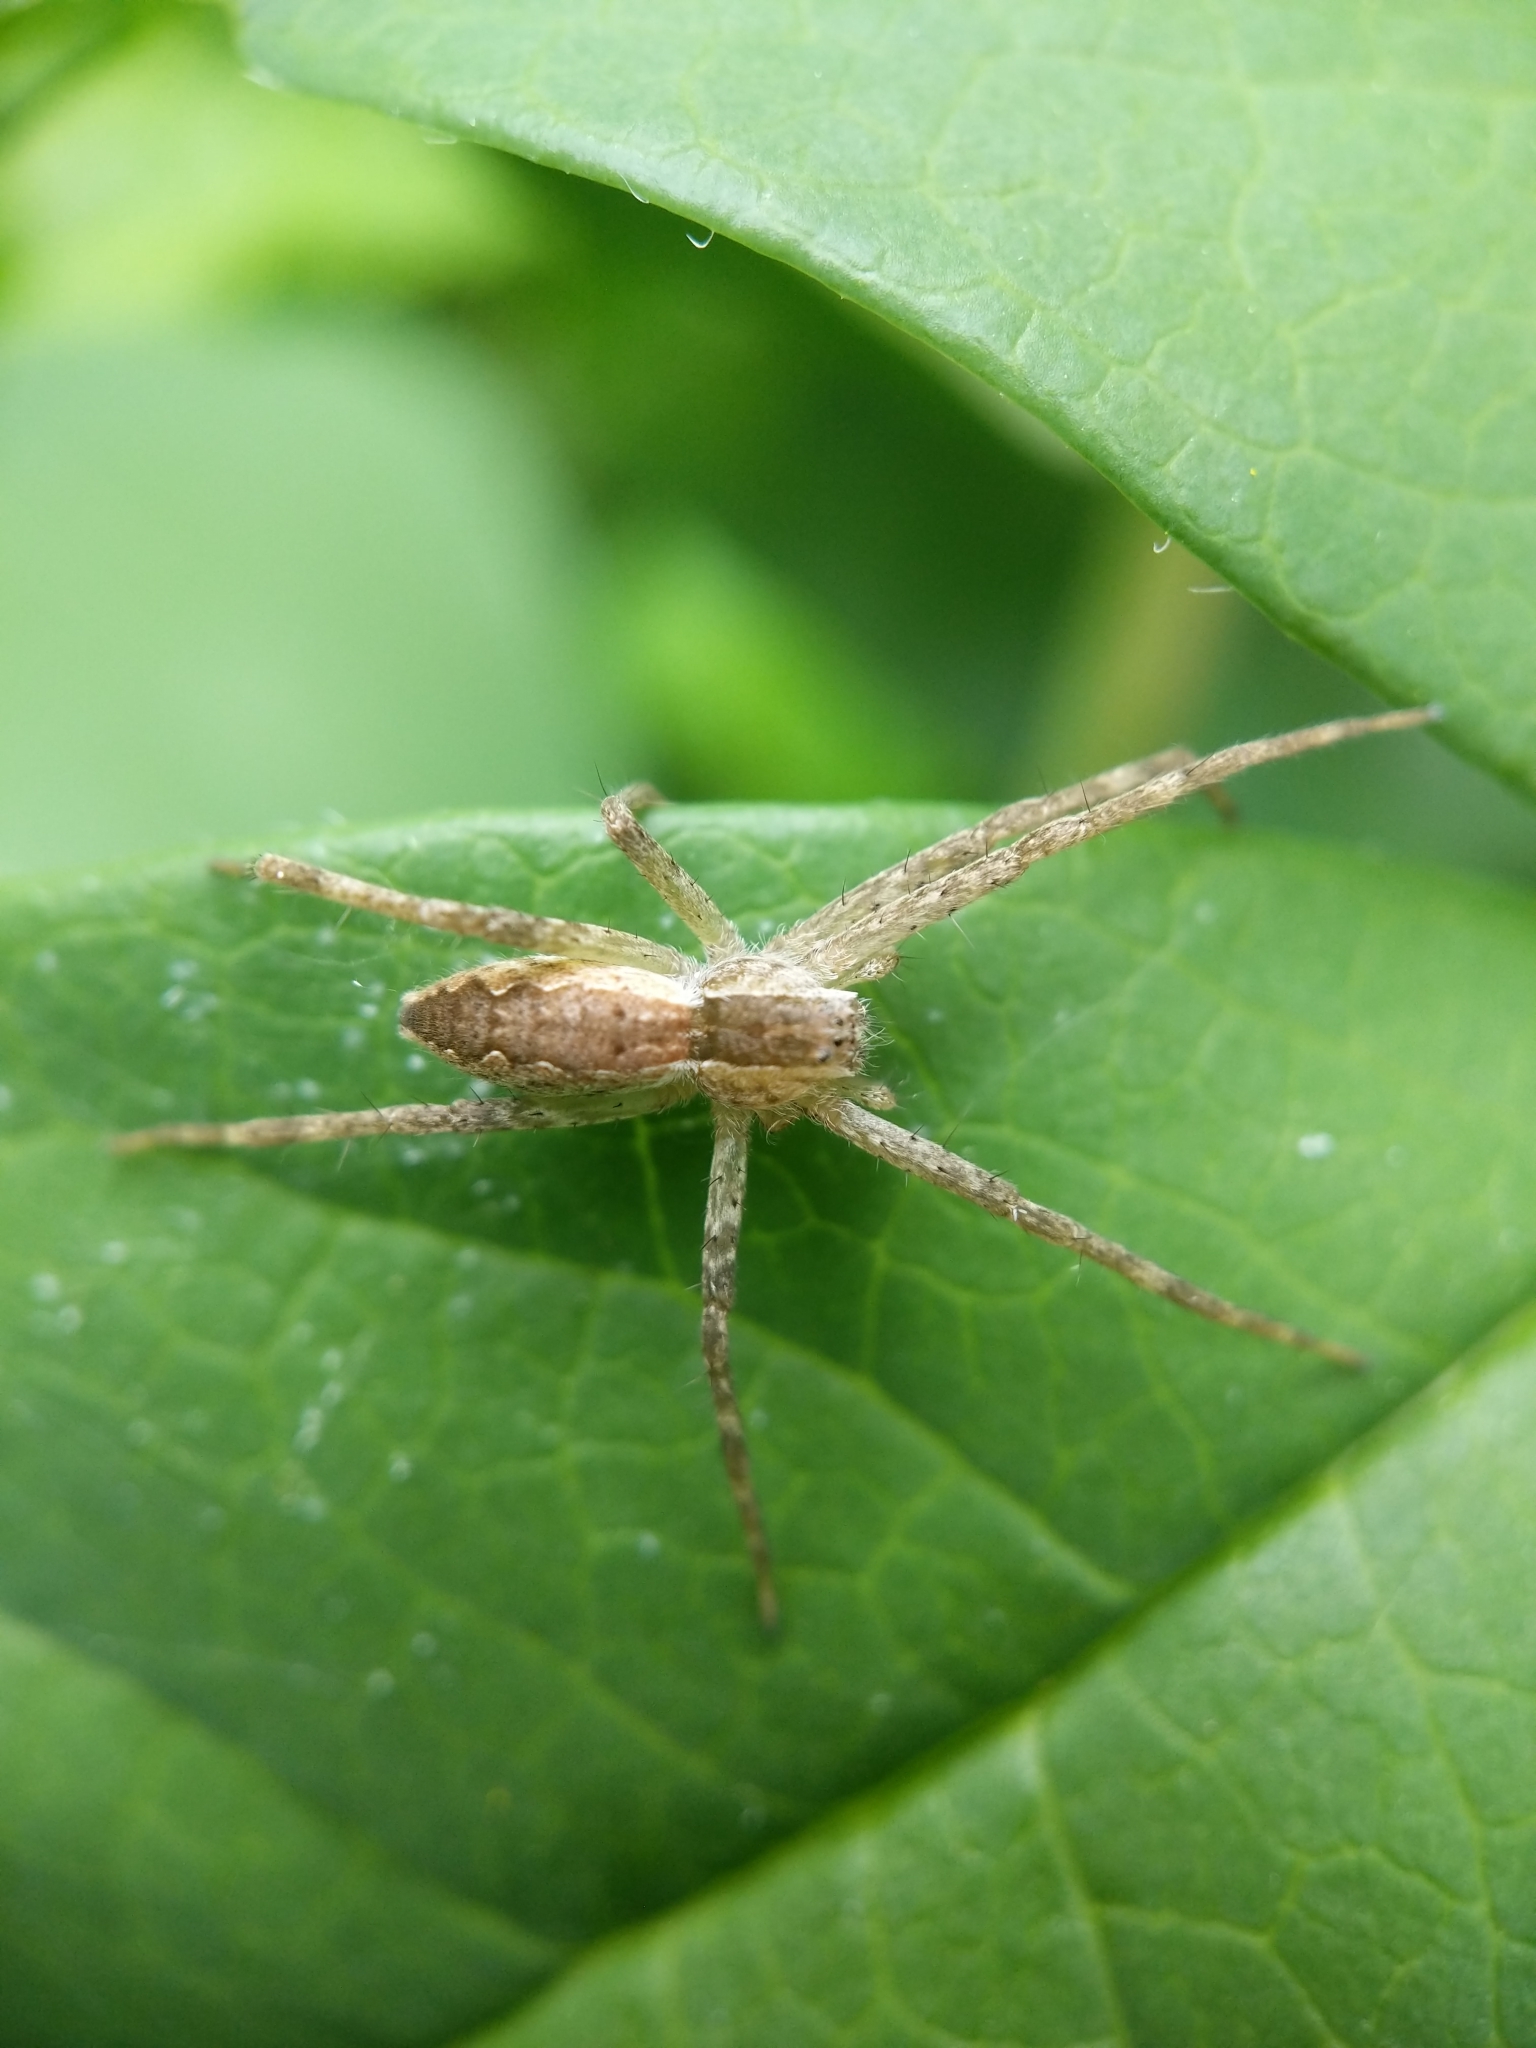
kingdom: Animalia
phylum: Arthropoda
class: Arachnida
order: Araneae
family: Pisauridae
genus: Pisaurina
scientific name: Pisaurina mira
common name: American nursery web spider
